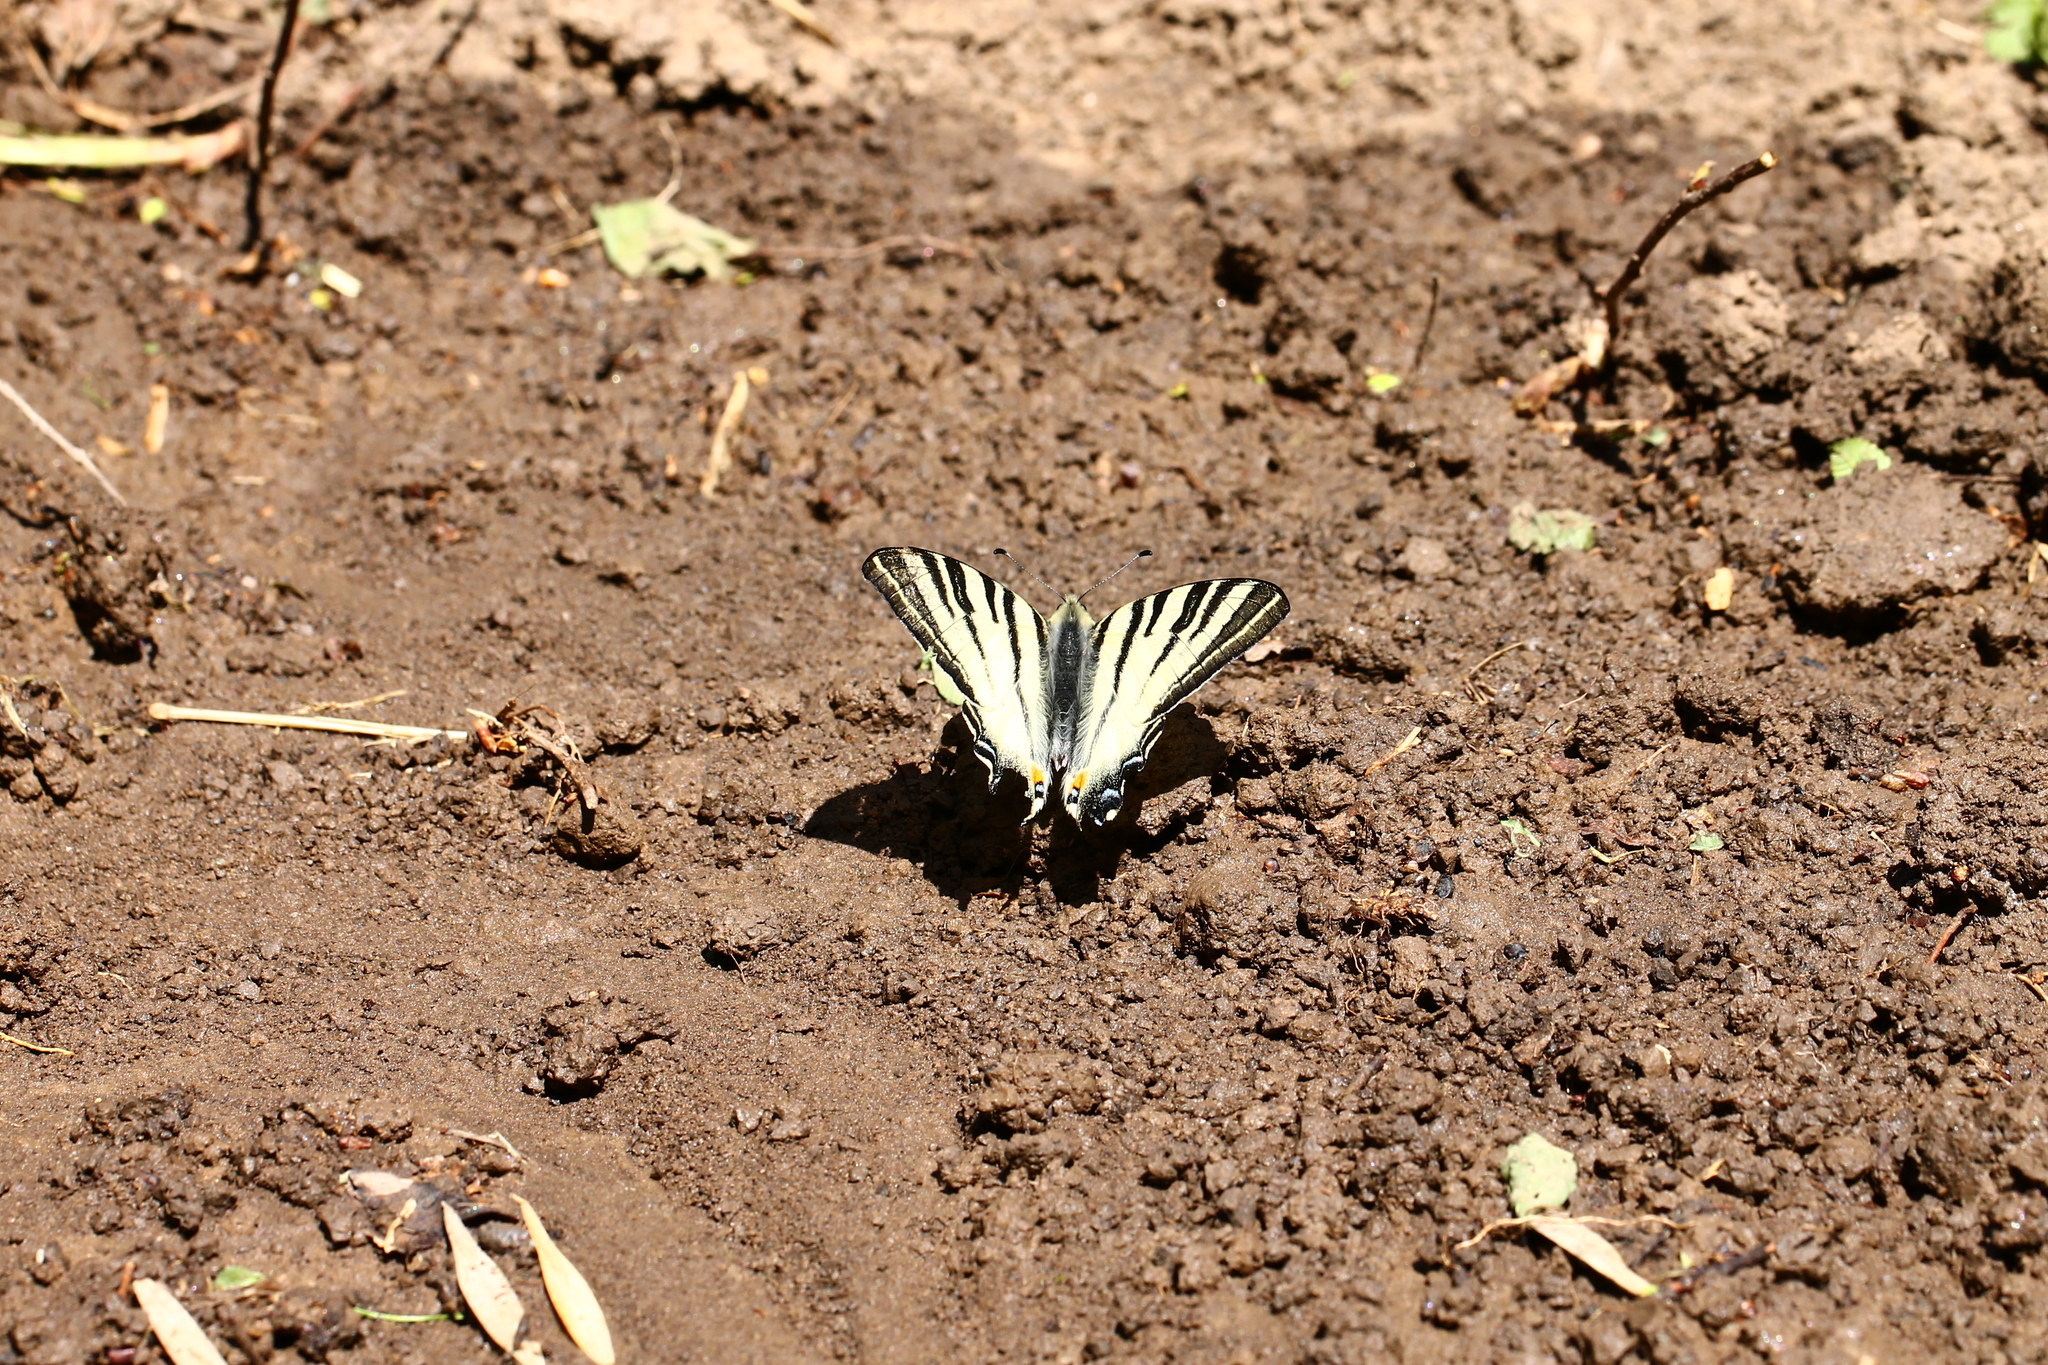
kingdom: Animalia
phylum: Arthropoda
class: Insecta
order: Lepidoptera
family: Papilionidae
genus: Iphiclides
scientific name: Iphiclides podalirius
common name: Scarce swallowtail
